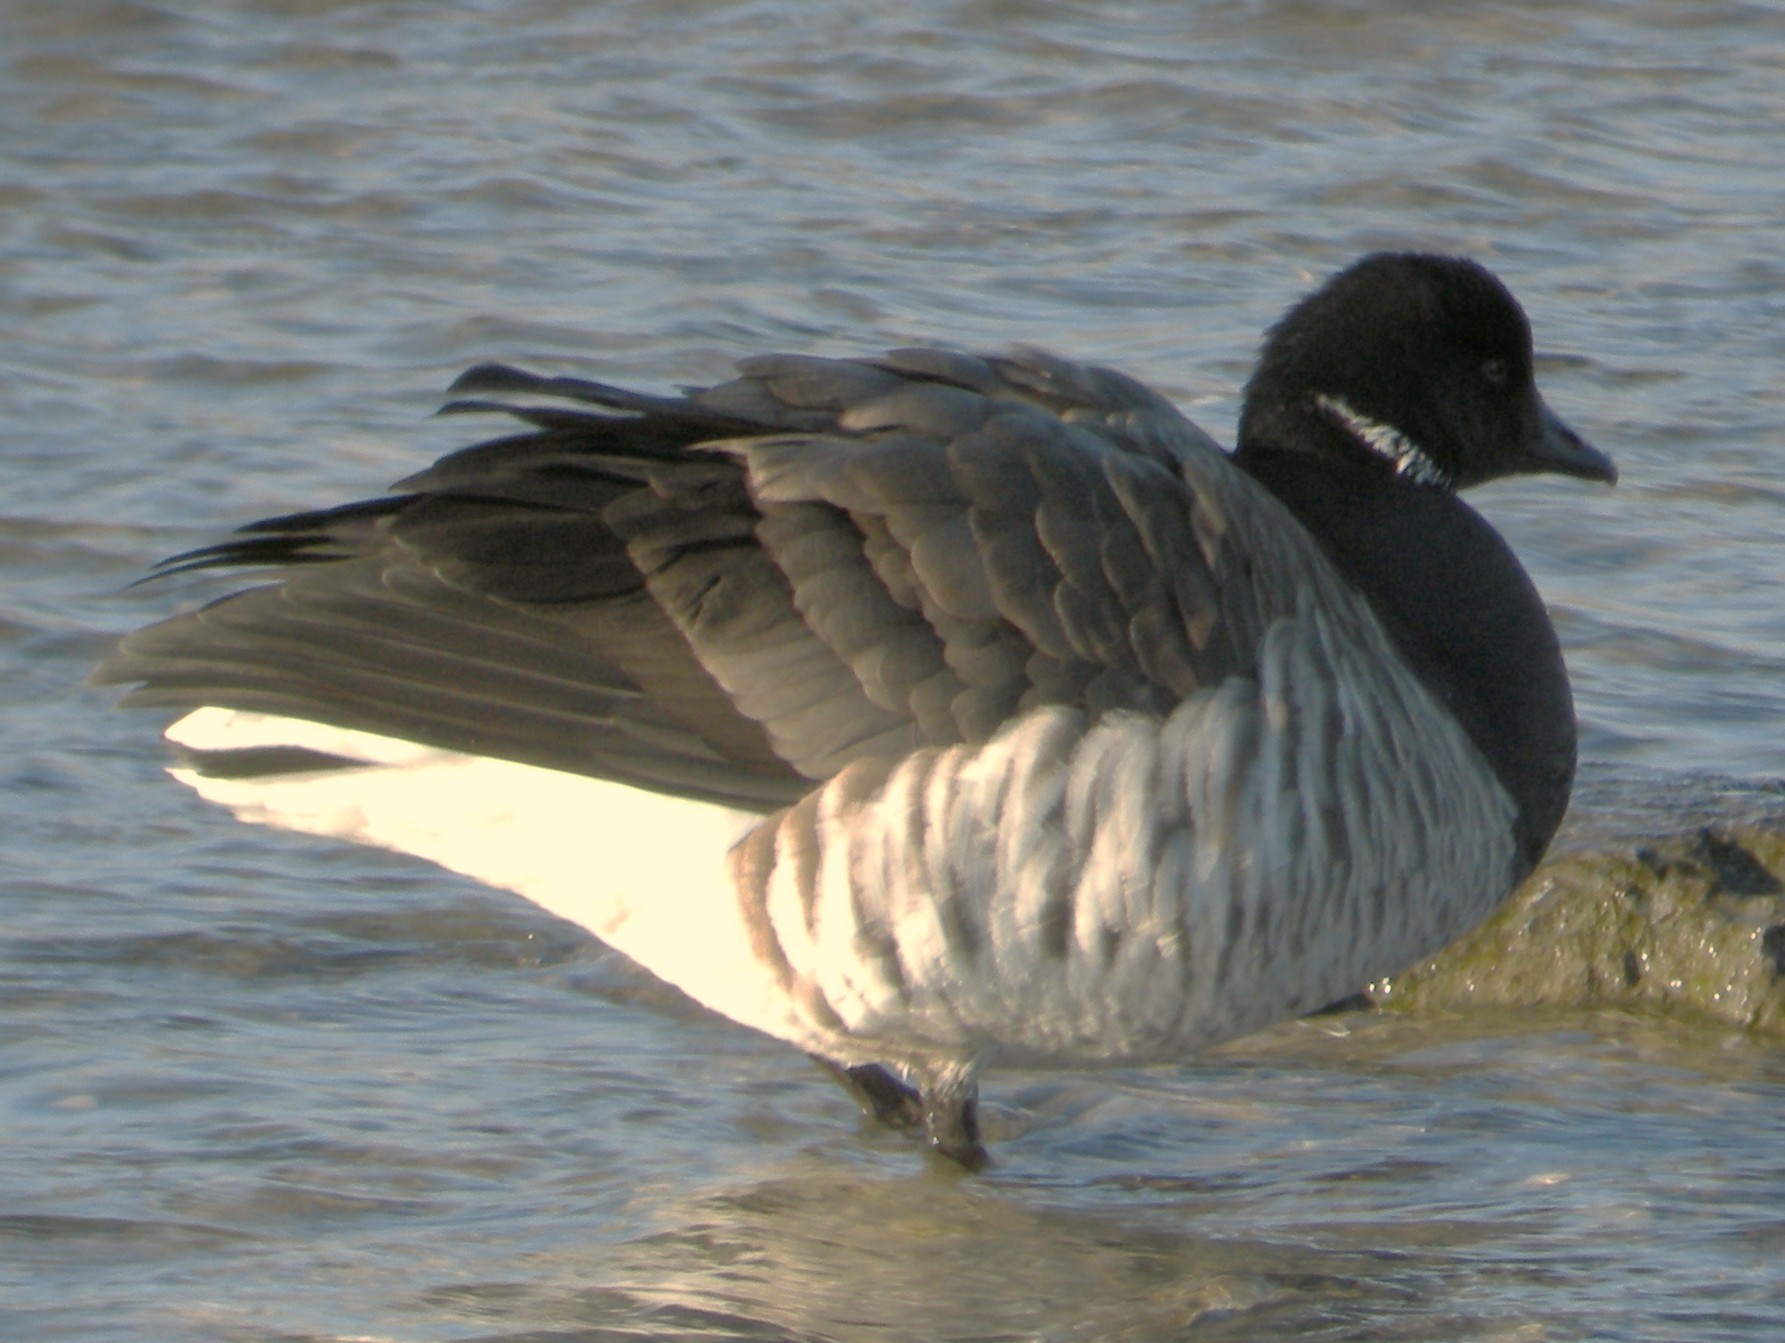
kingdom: Animalia
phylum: Chordata
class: Aves
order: Anseriformes
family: Anatidae
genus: Branta
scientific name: Branta bernicla
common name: Brant goose
